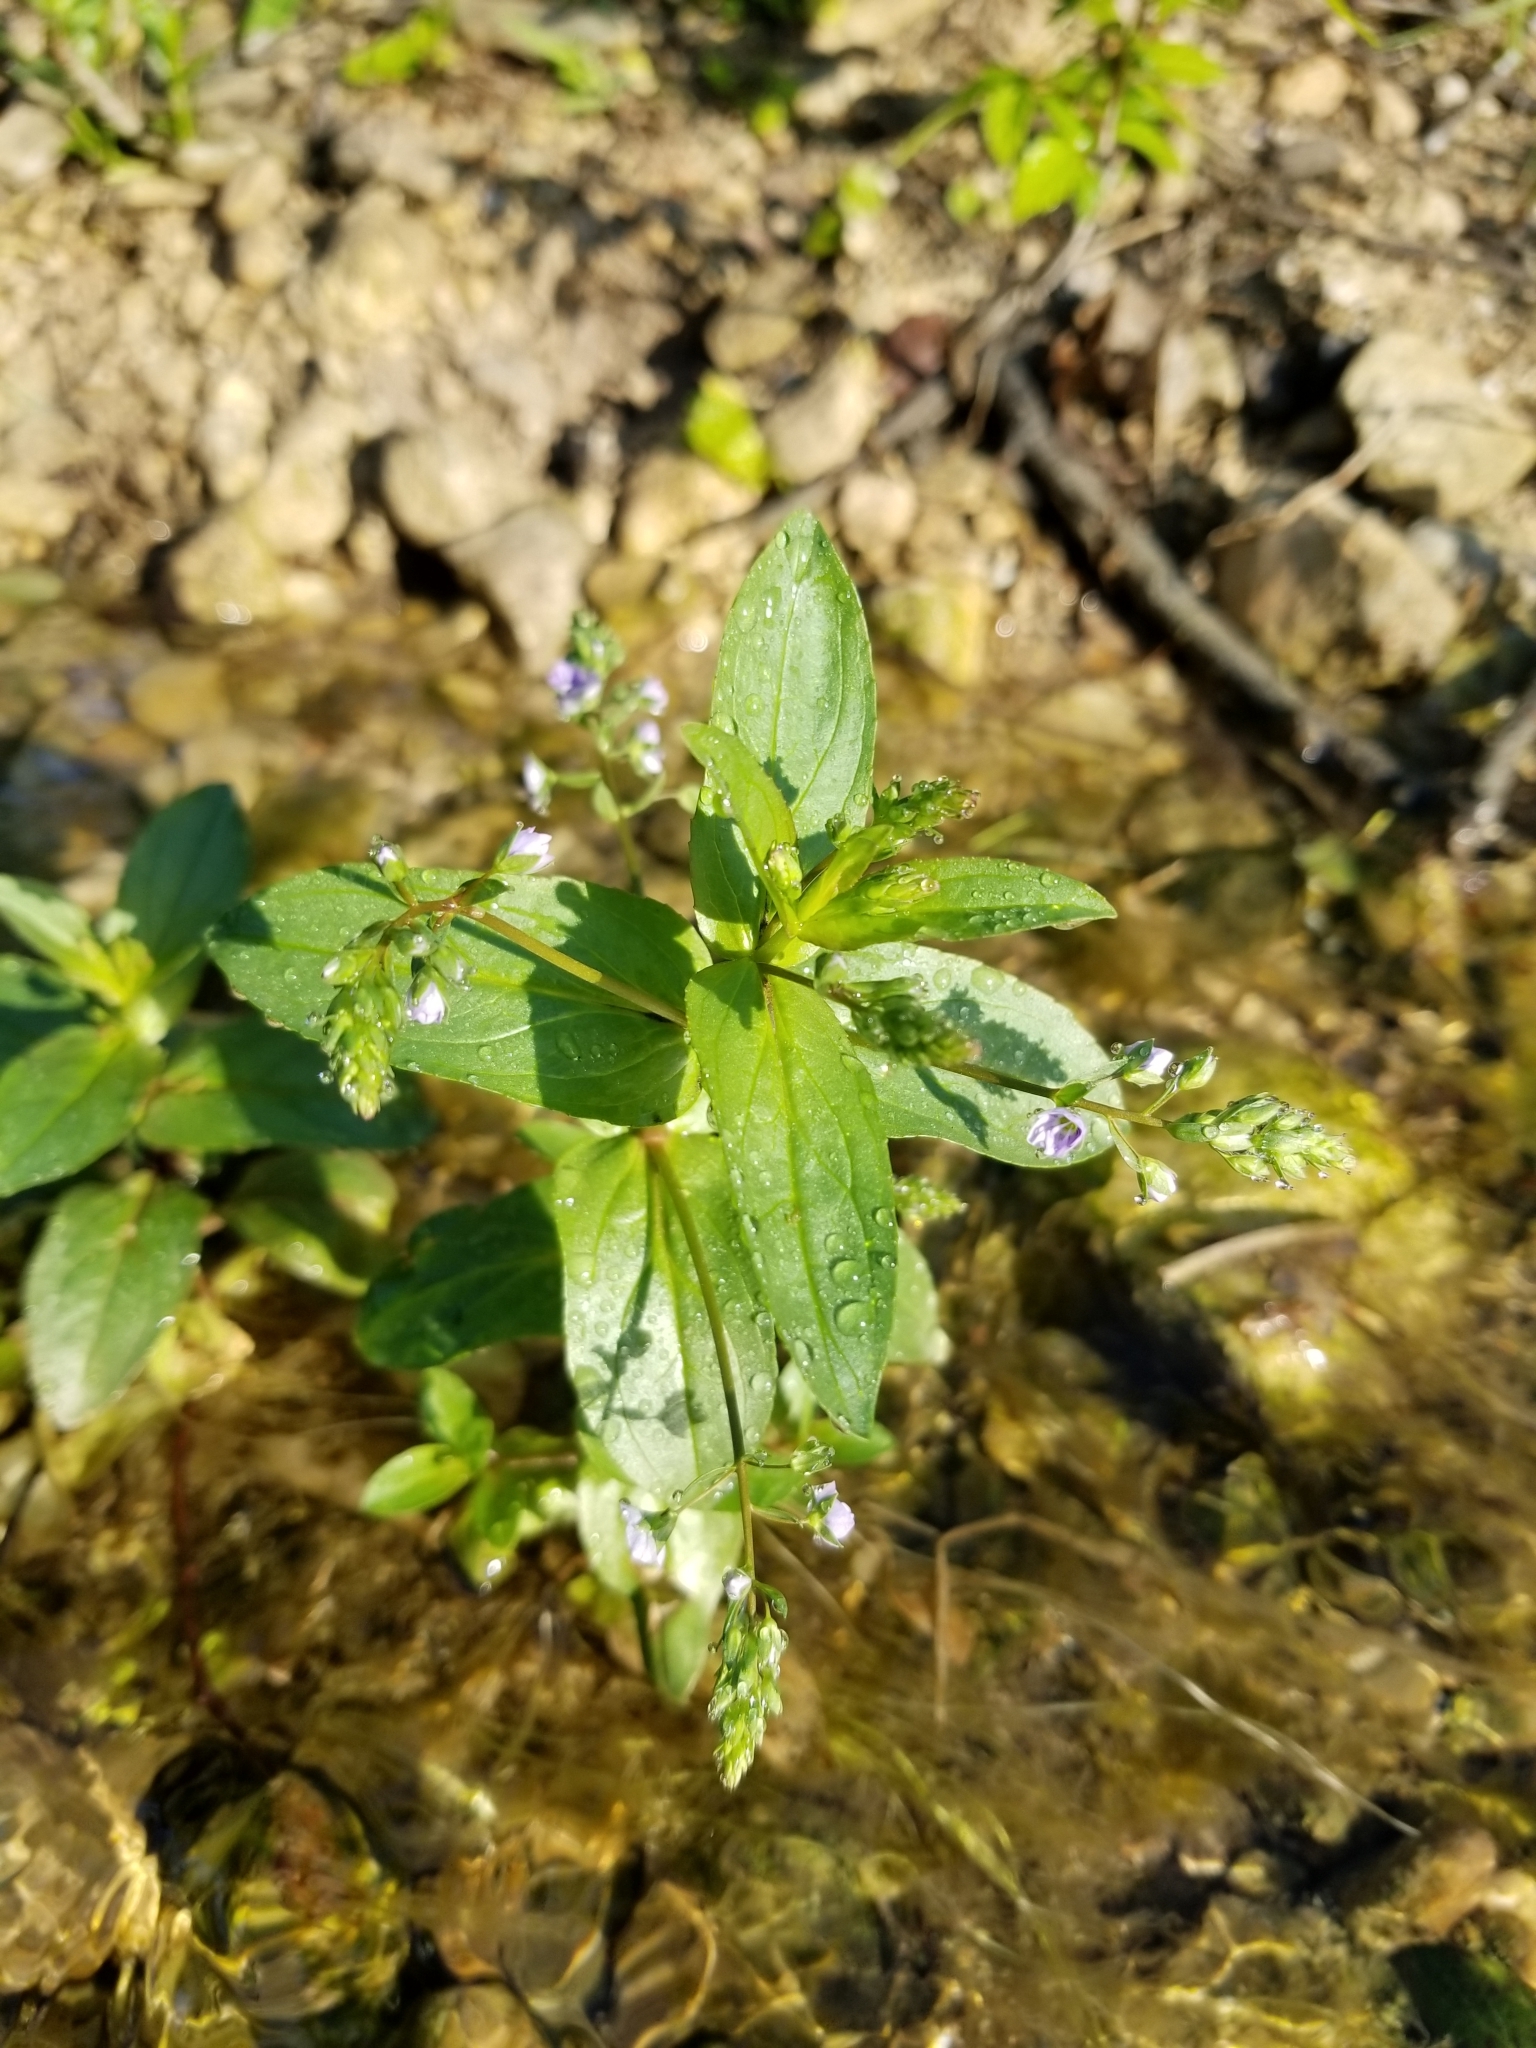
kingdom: Plantae
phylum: Tracheophyta
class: Magnoliopsida
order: Lamiales
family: Plantaginaceae
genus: Veronica
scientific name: Veronica anagallis-aquatica
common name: Water speedwell
